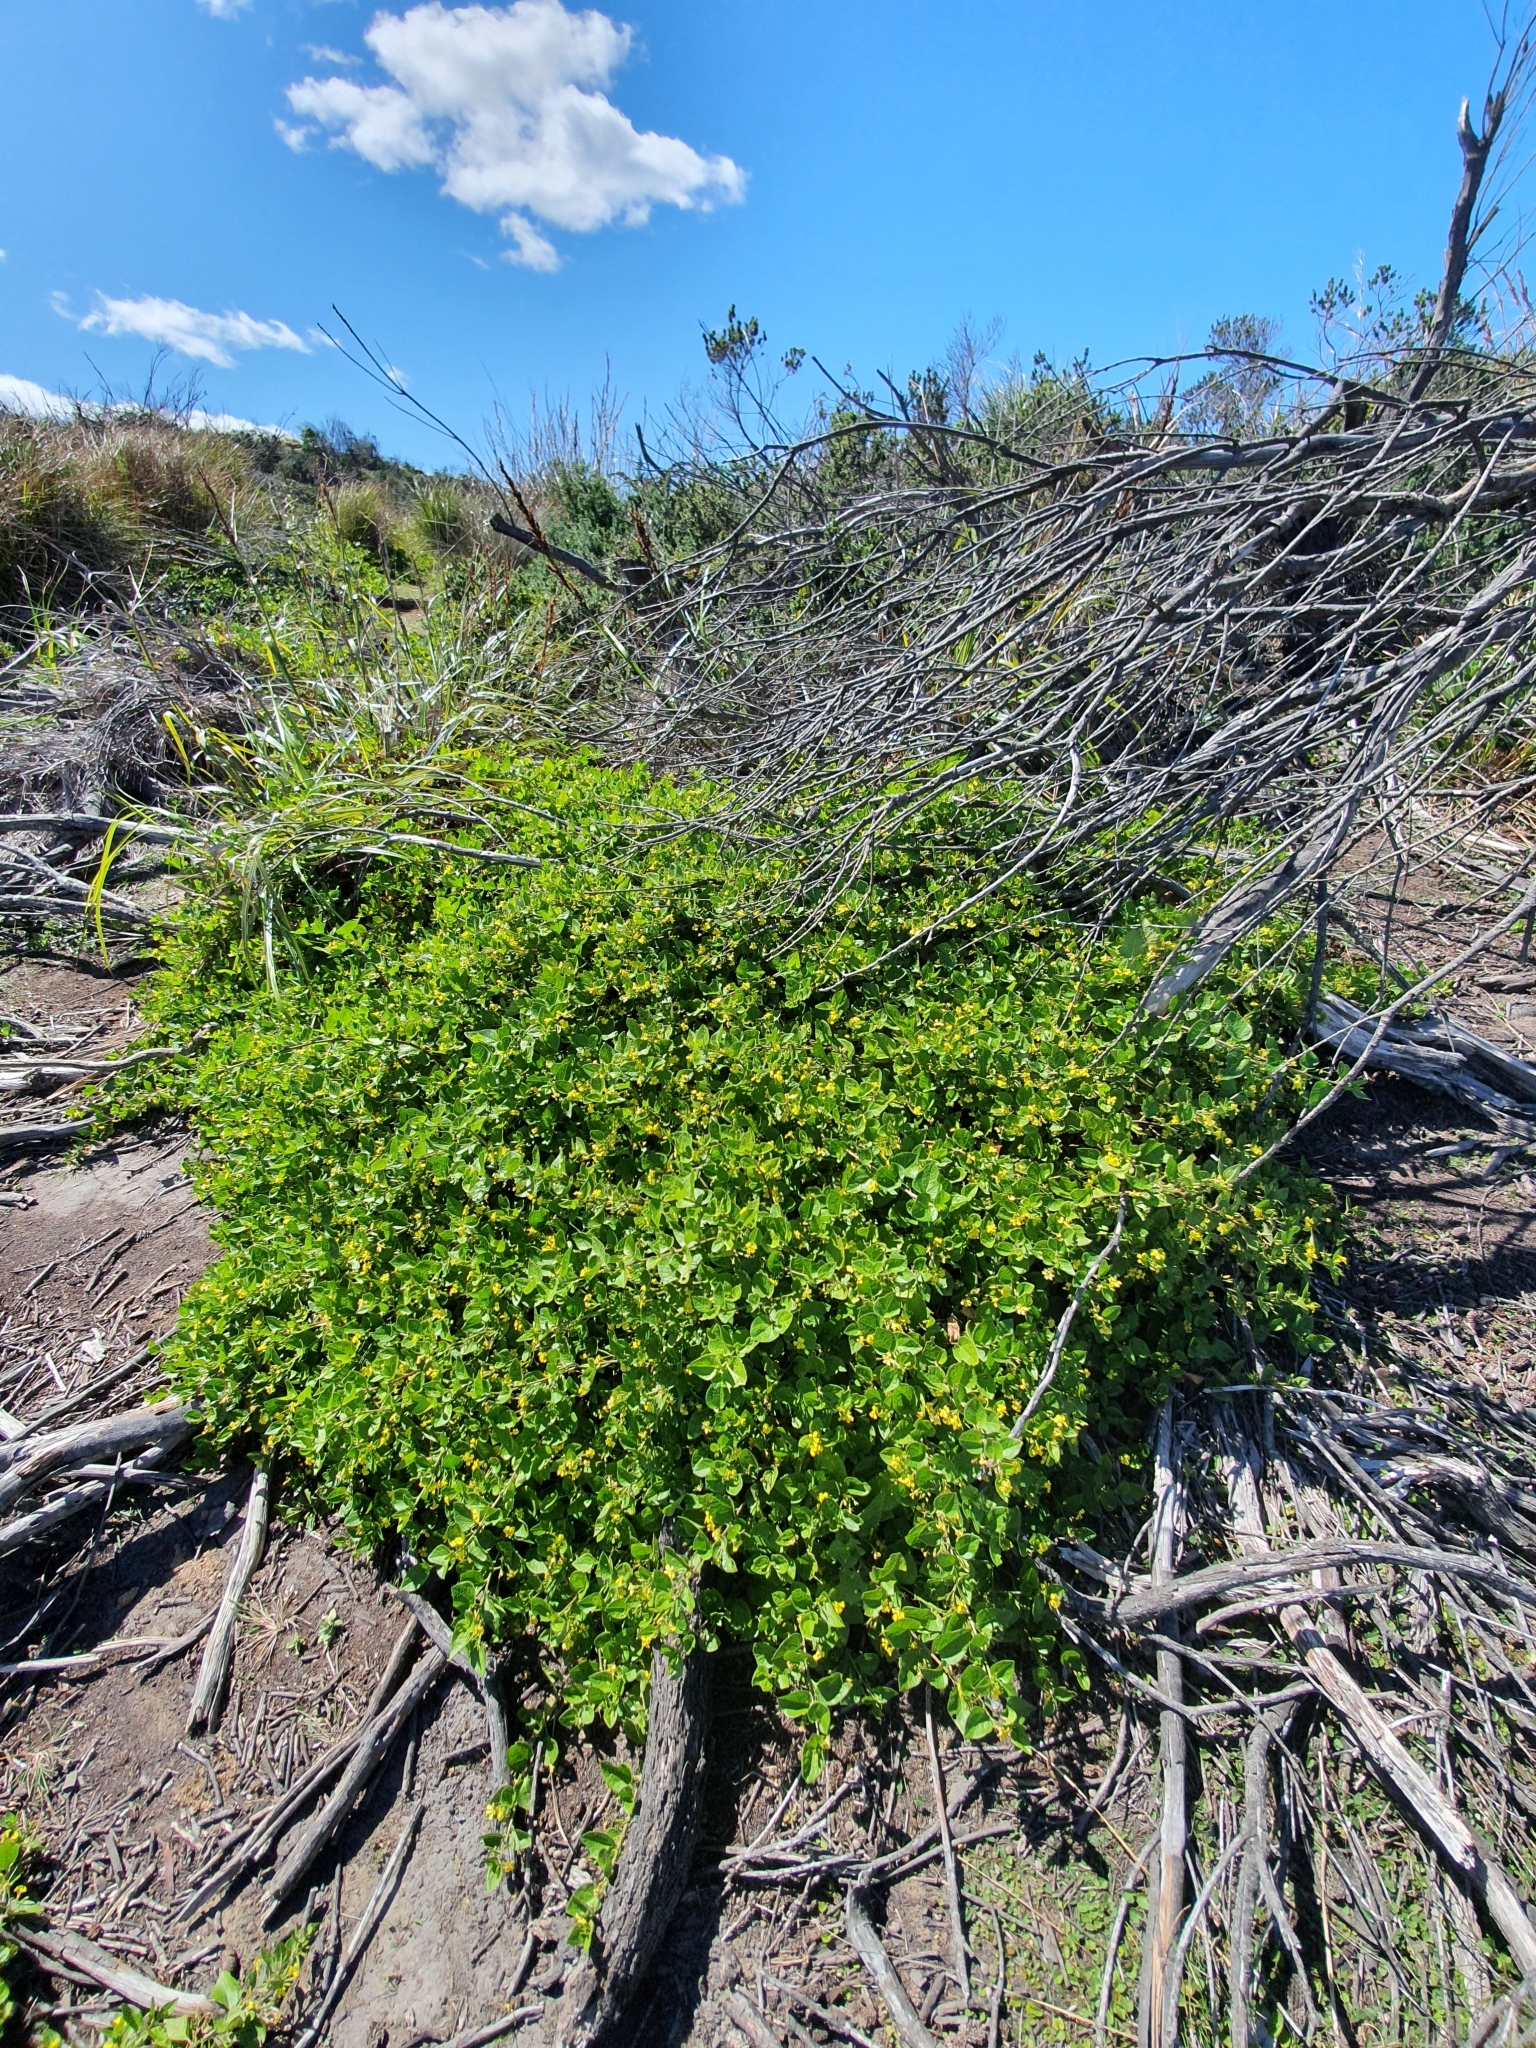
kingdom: Plantae
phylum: Tracheophyta
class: Magnoliopsida
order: Asterales
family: Goodeniaceae
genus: Goodenia
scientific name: Goodenia ovata
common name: Hop goodenia
